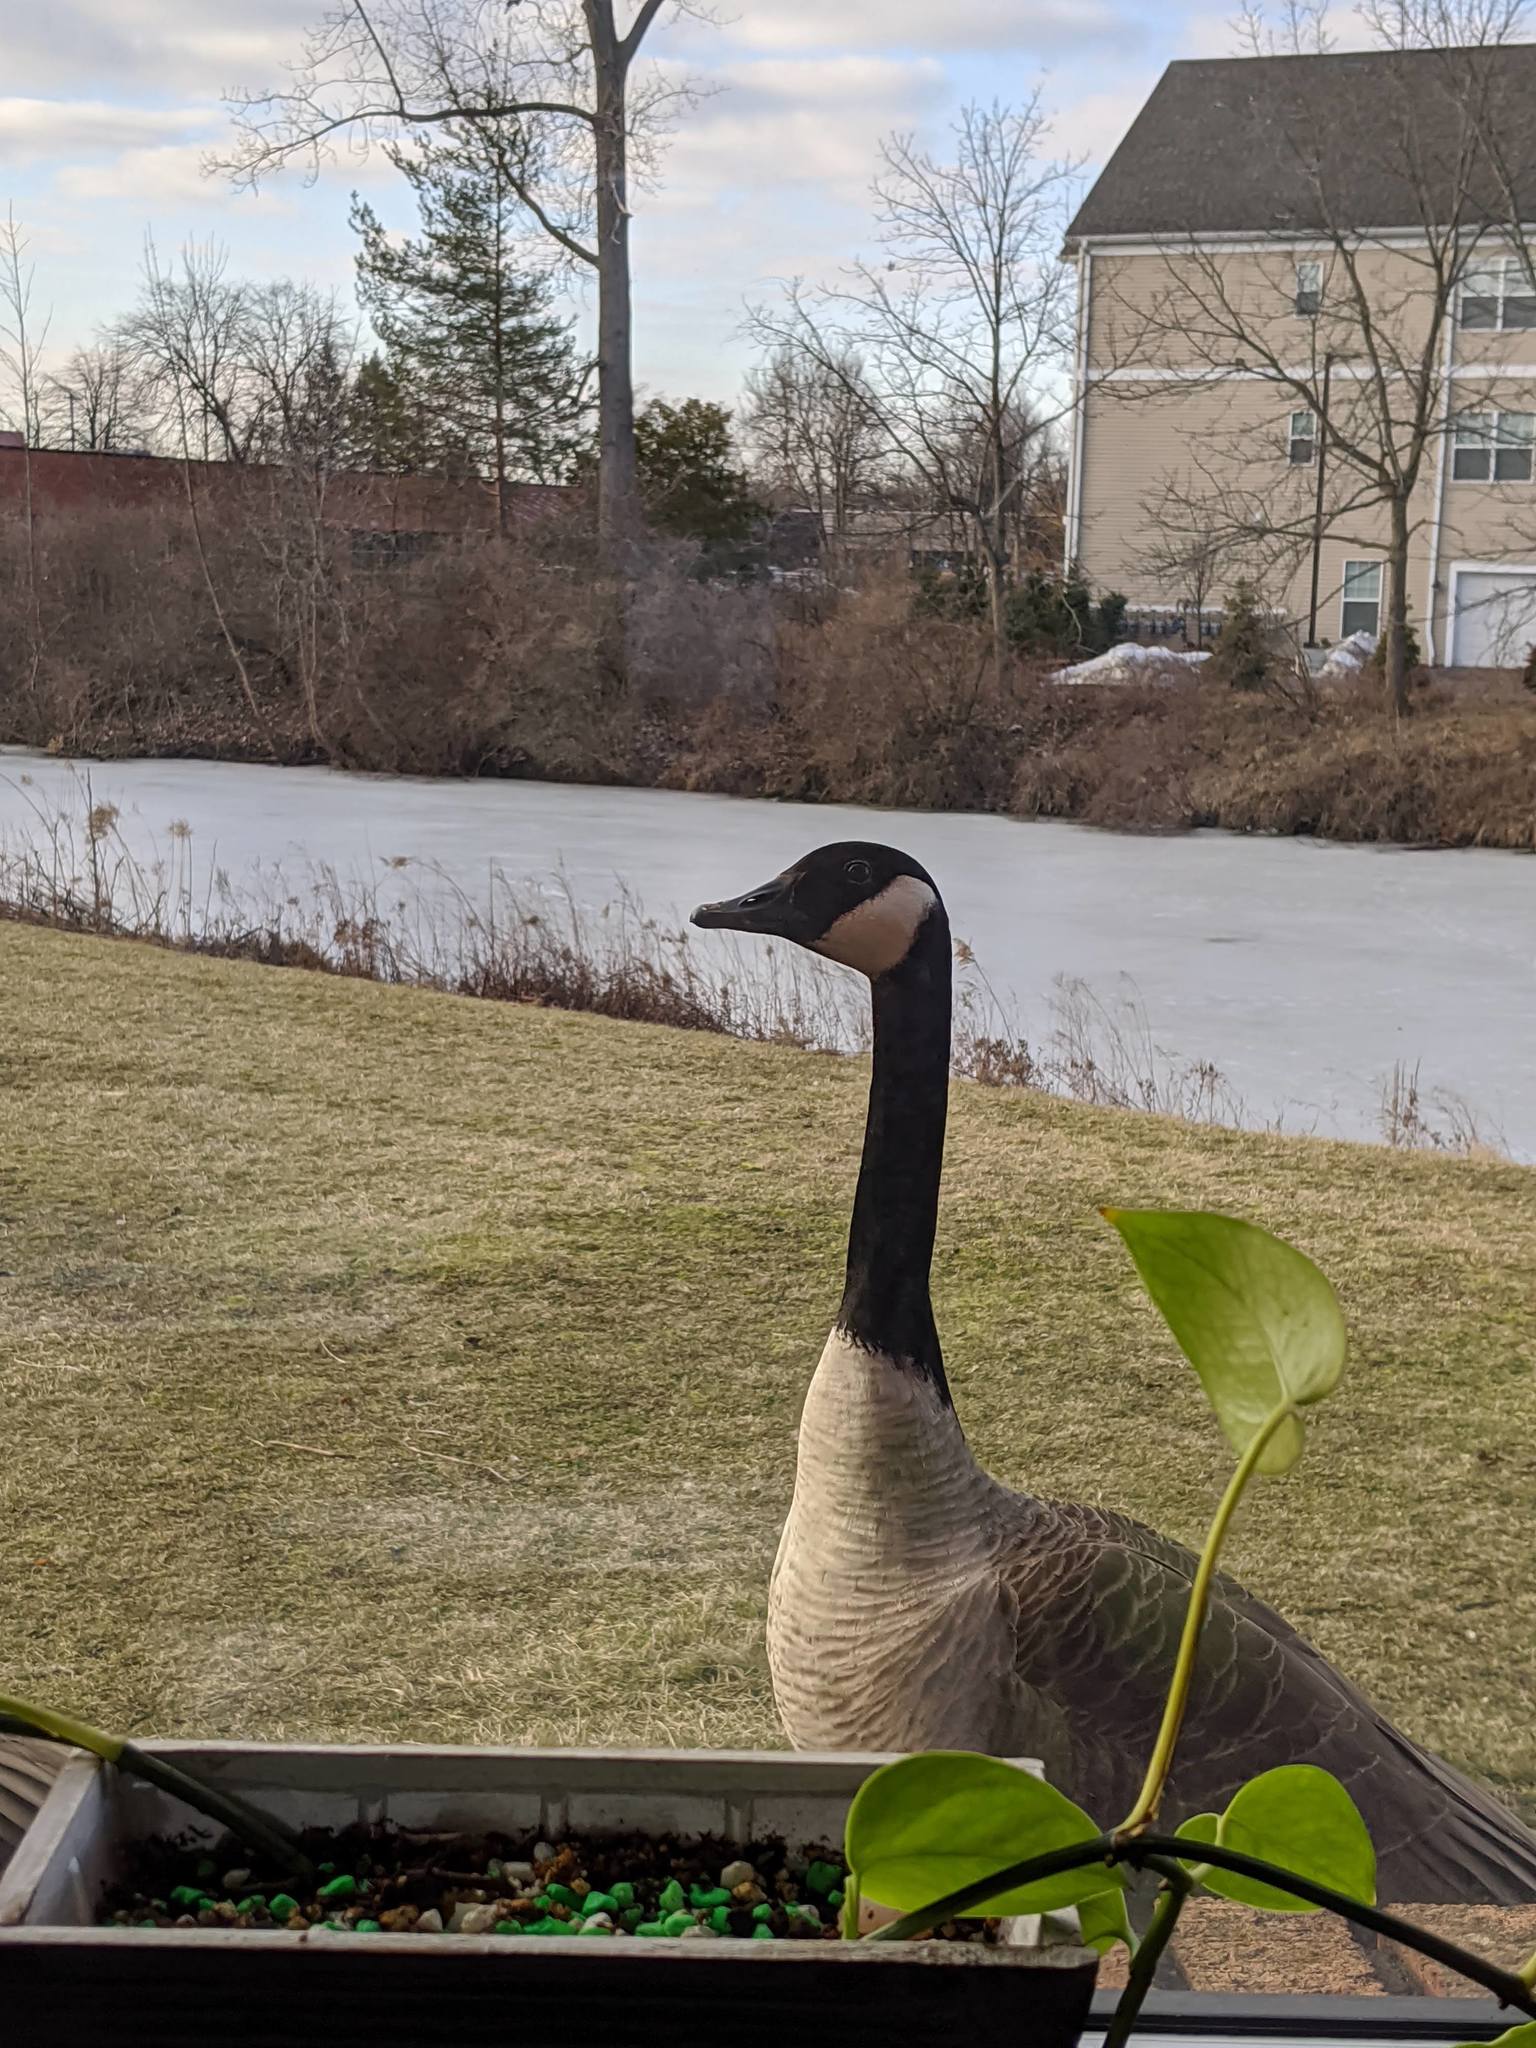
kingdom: Animalia
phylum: Chordata
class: Aves
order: Anseriformes
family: Anatidae
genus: Branta
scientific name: Branta canadensis
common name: Canada goose
